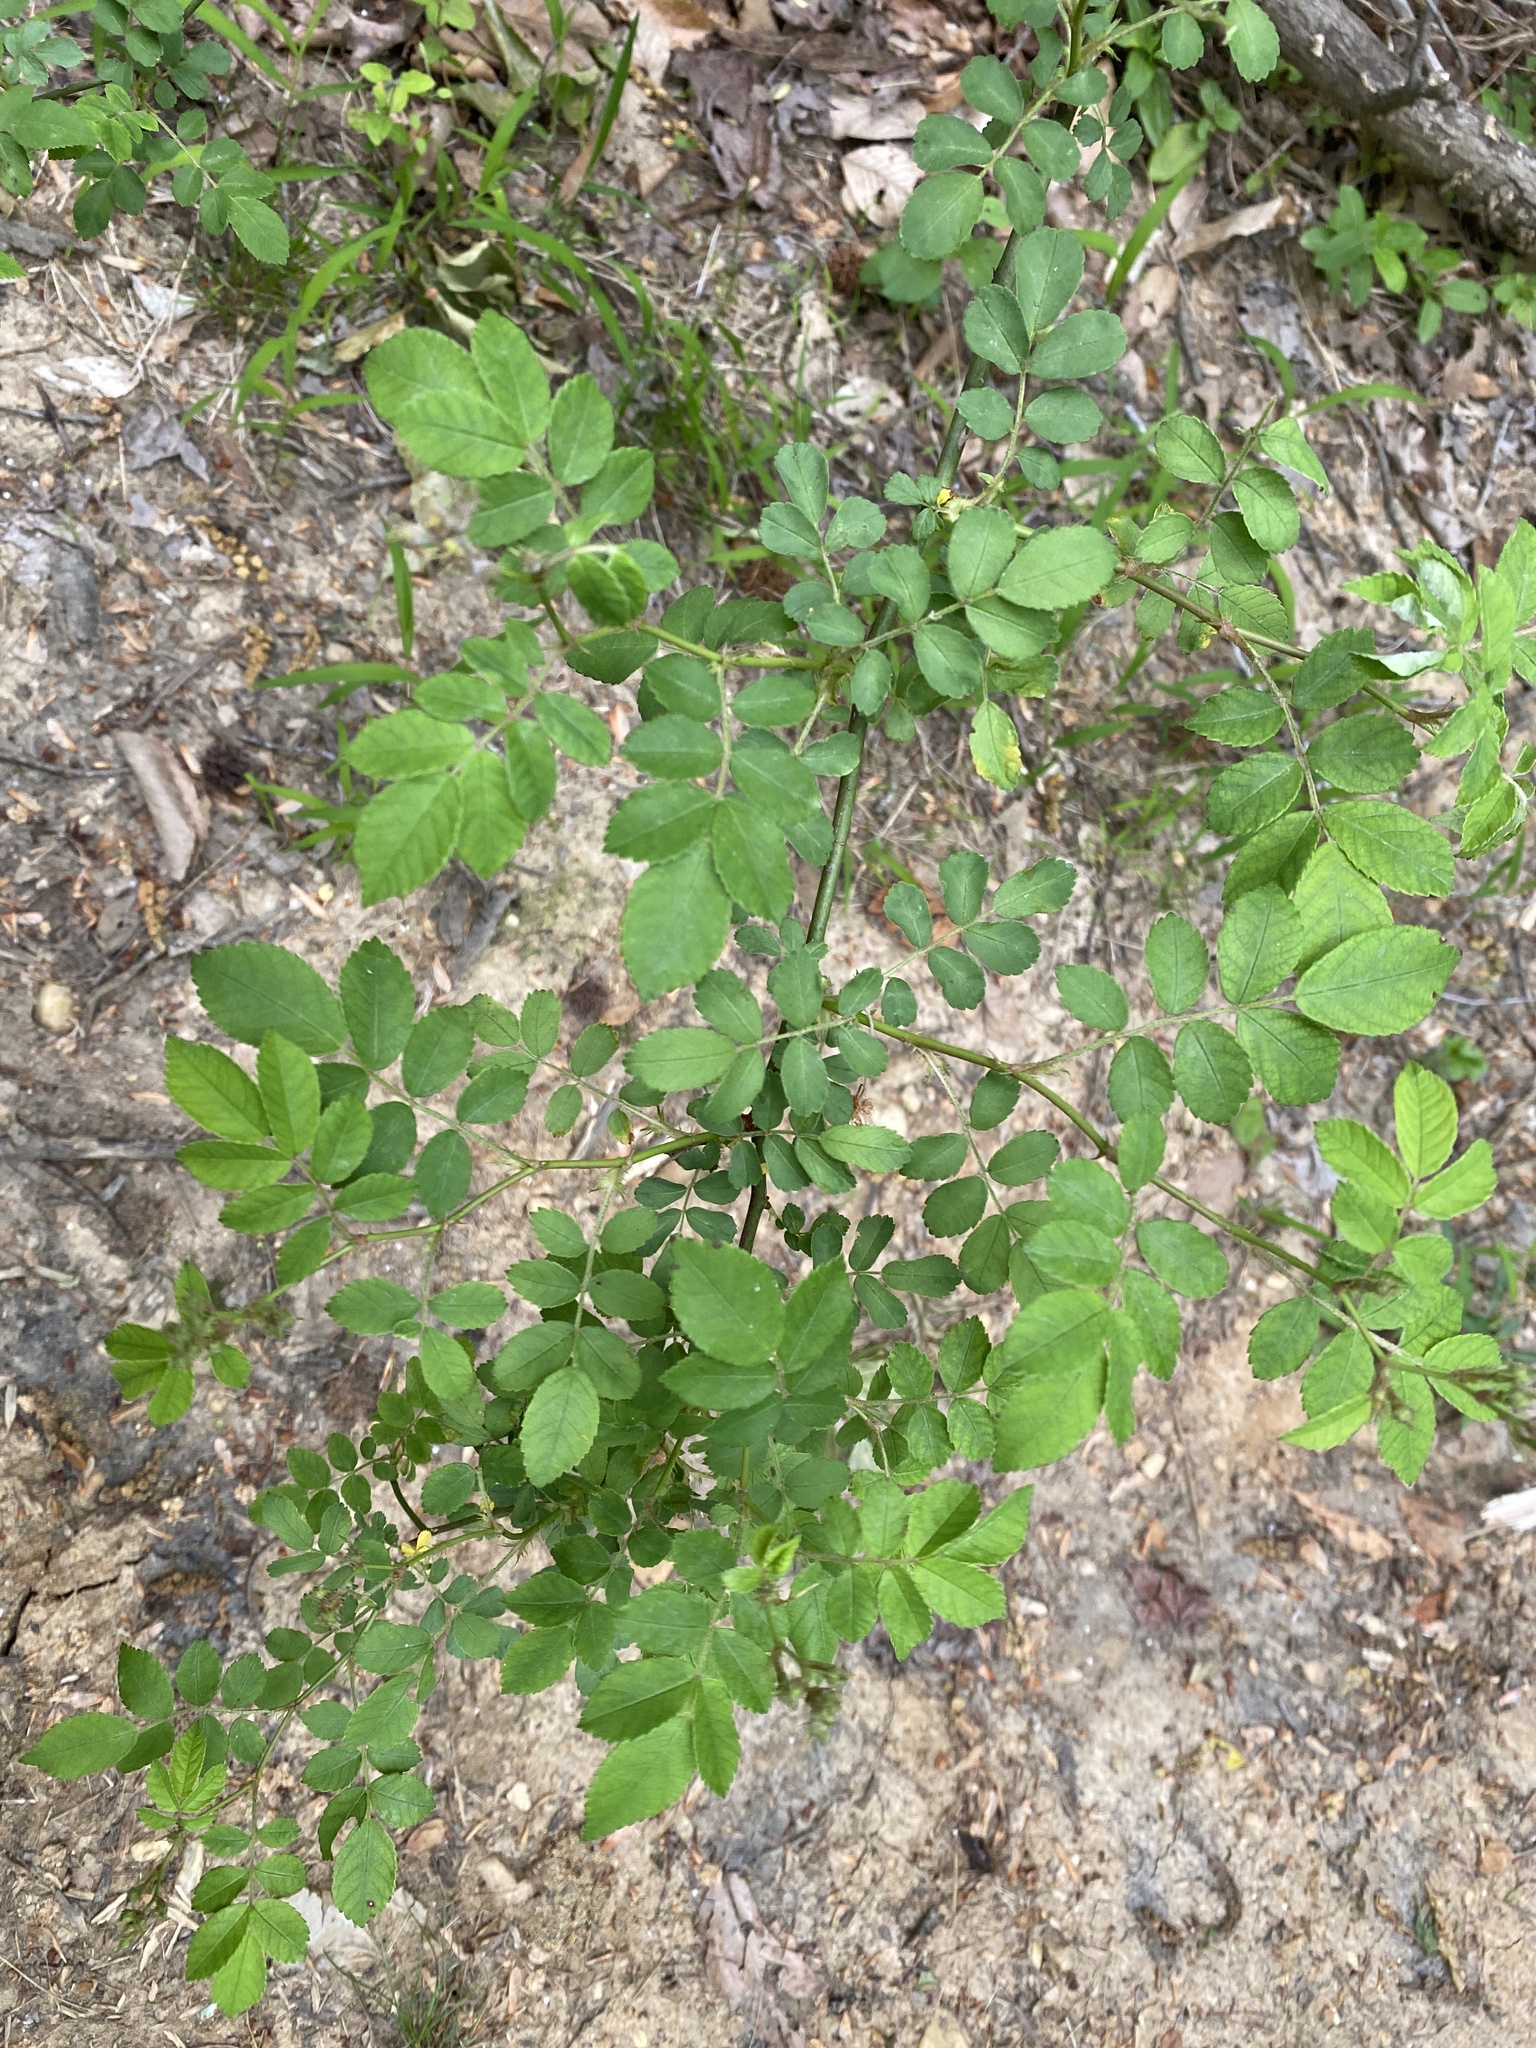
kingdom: Plantae
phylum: Tracheophyta
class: Magnoliopsida
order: Rosales
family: Rosaceae
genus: Rosa
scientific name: Rosa multiflora
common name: Multiflora rose
